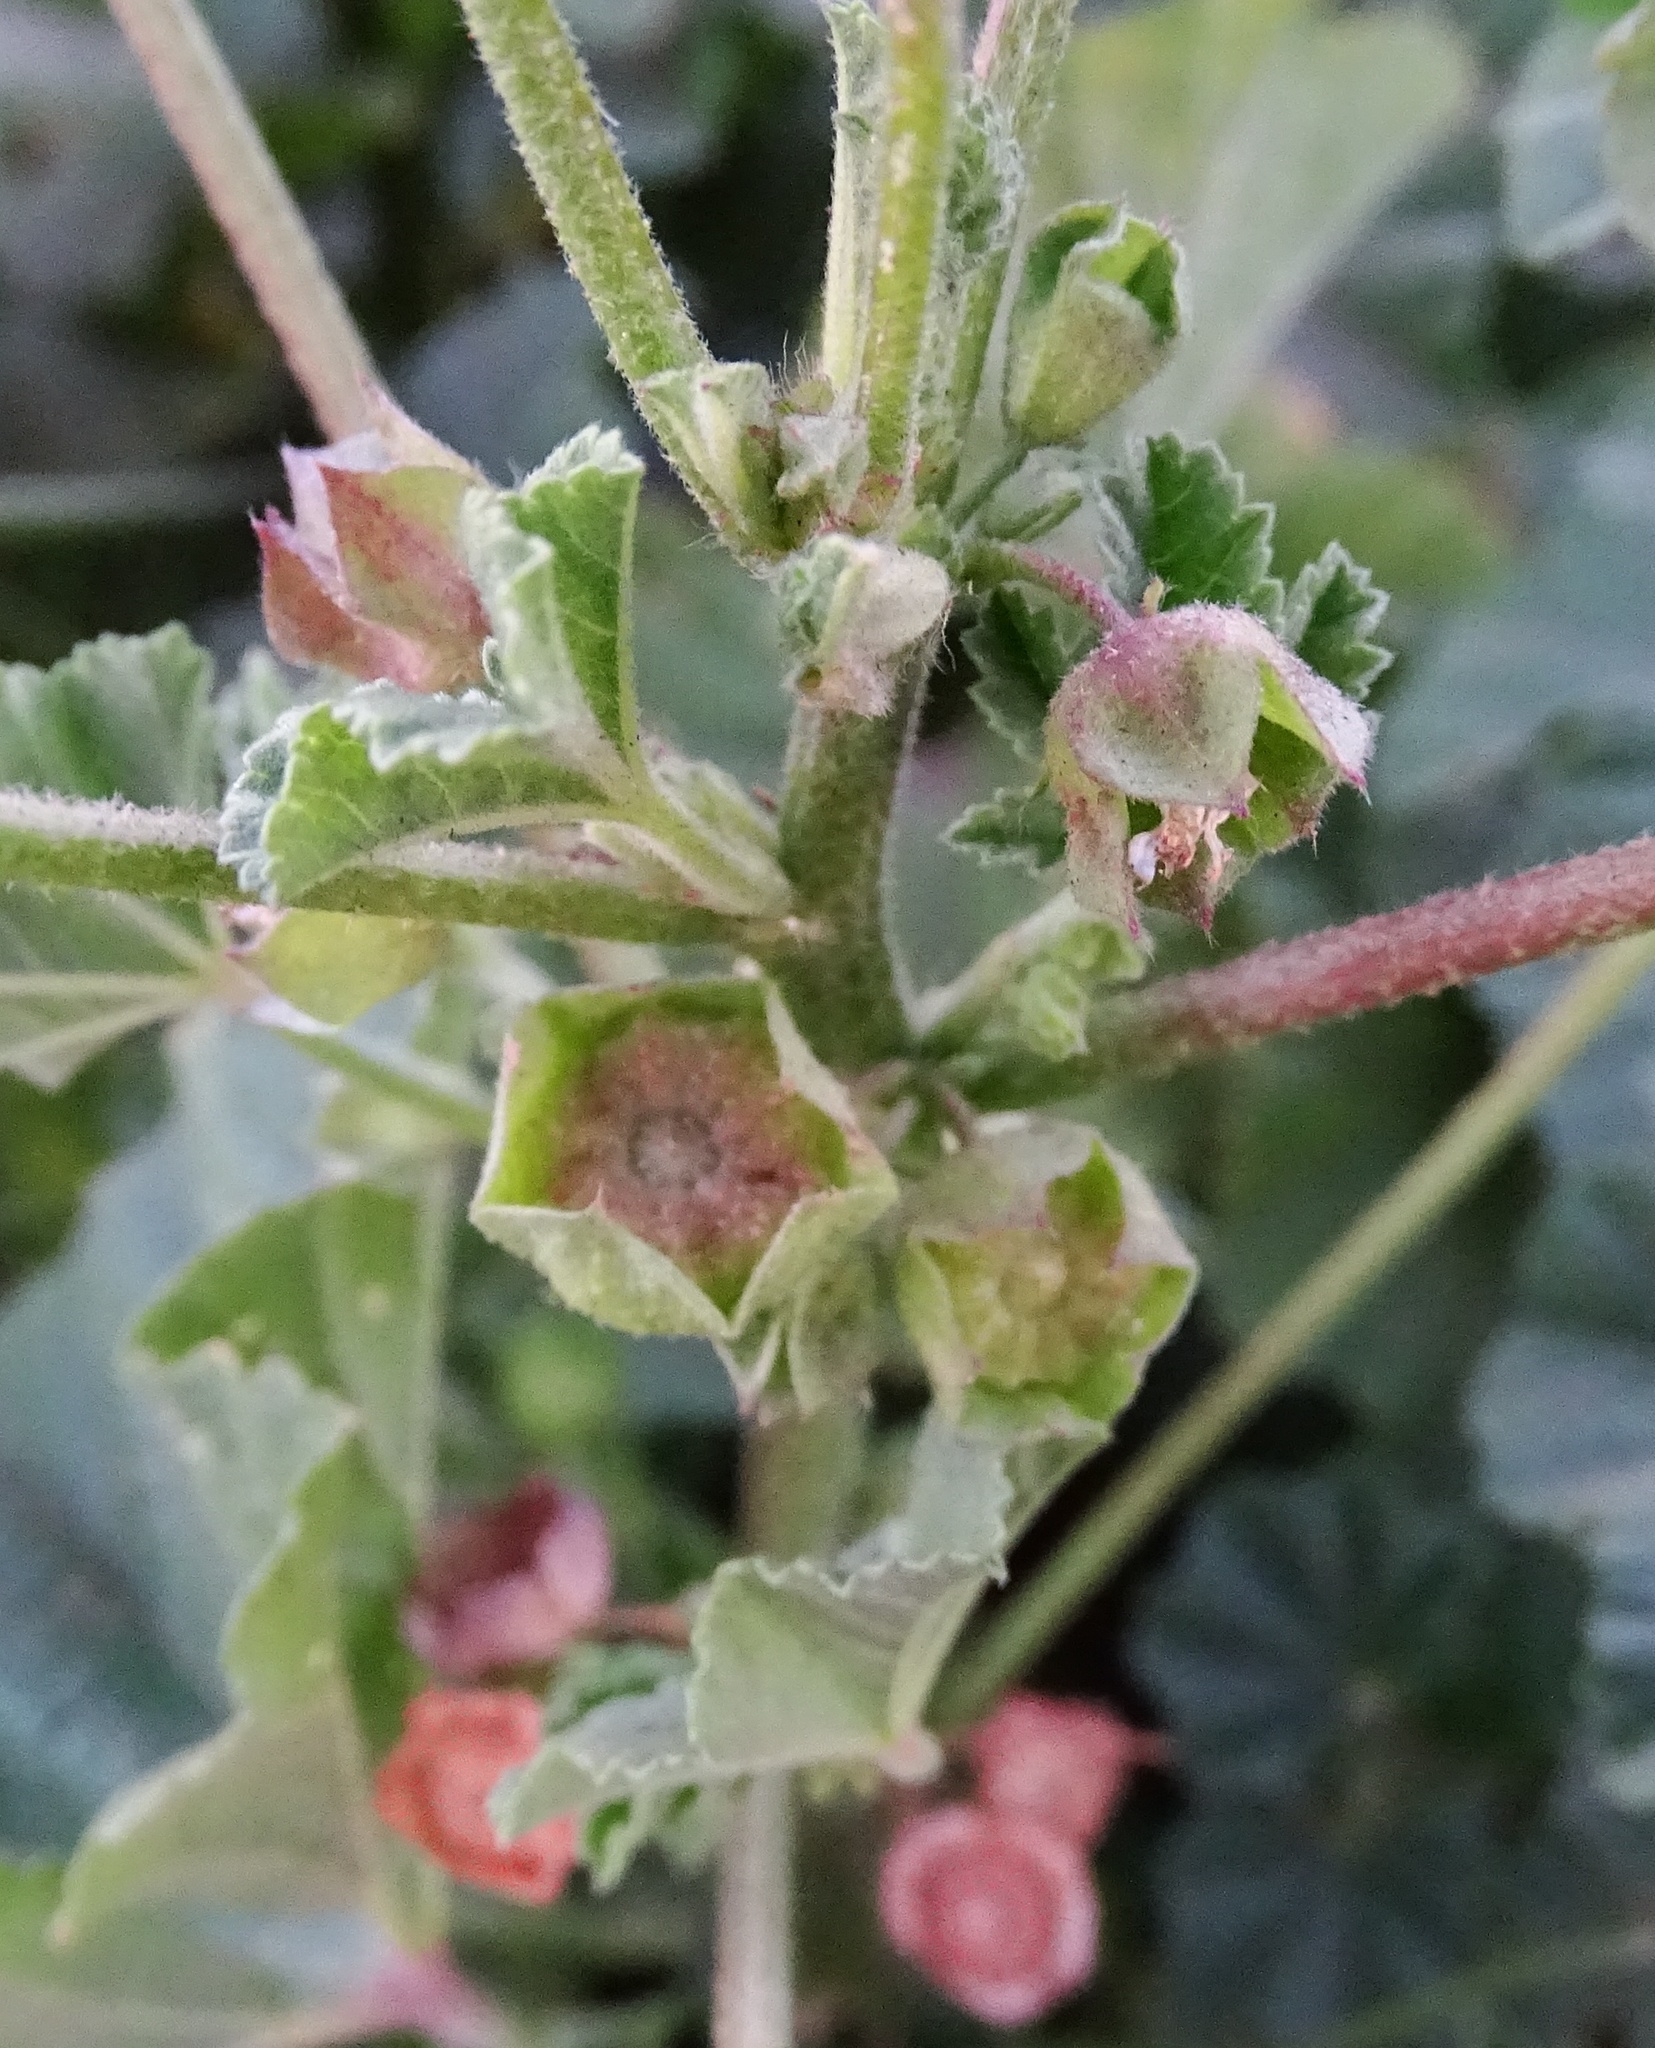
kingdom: Plantae
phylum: Tracheophyta
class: Magnoliopsida
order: Malvales
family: Malvaceae
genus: Malva
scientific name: Malva parviflora
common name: Least mallow
